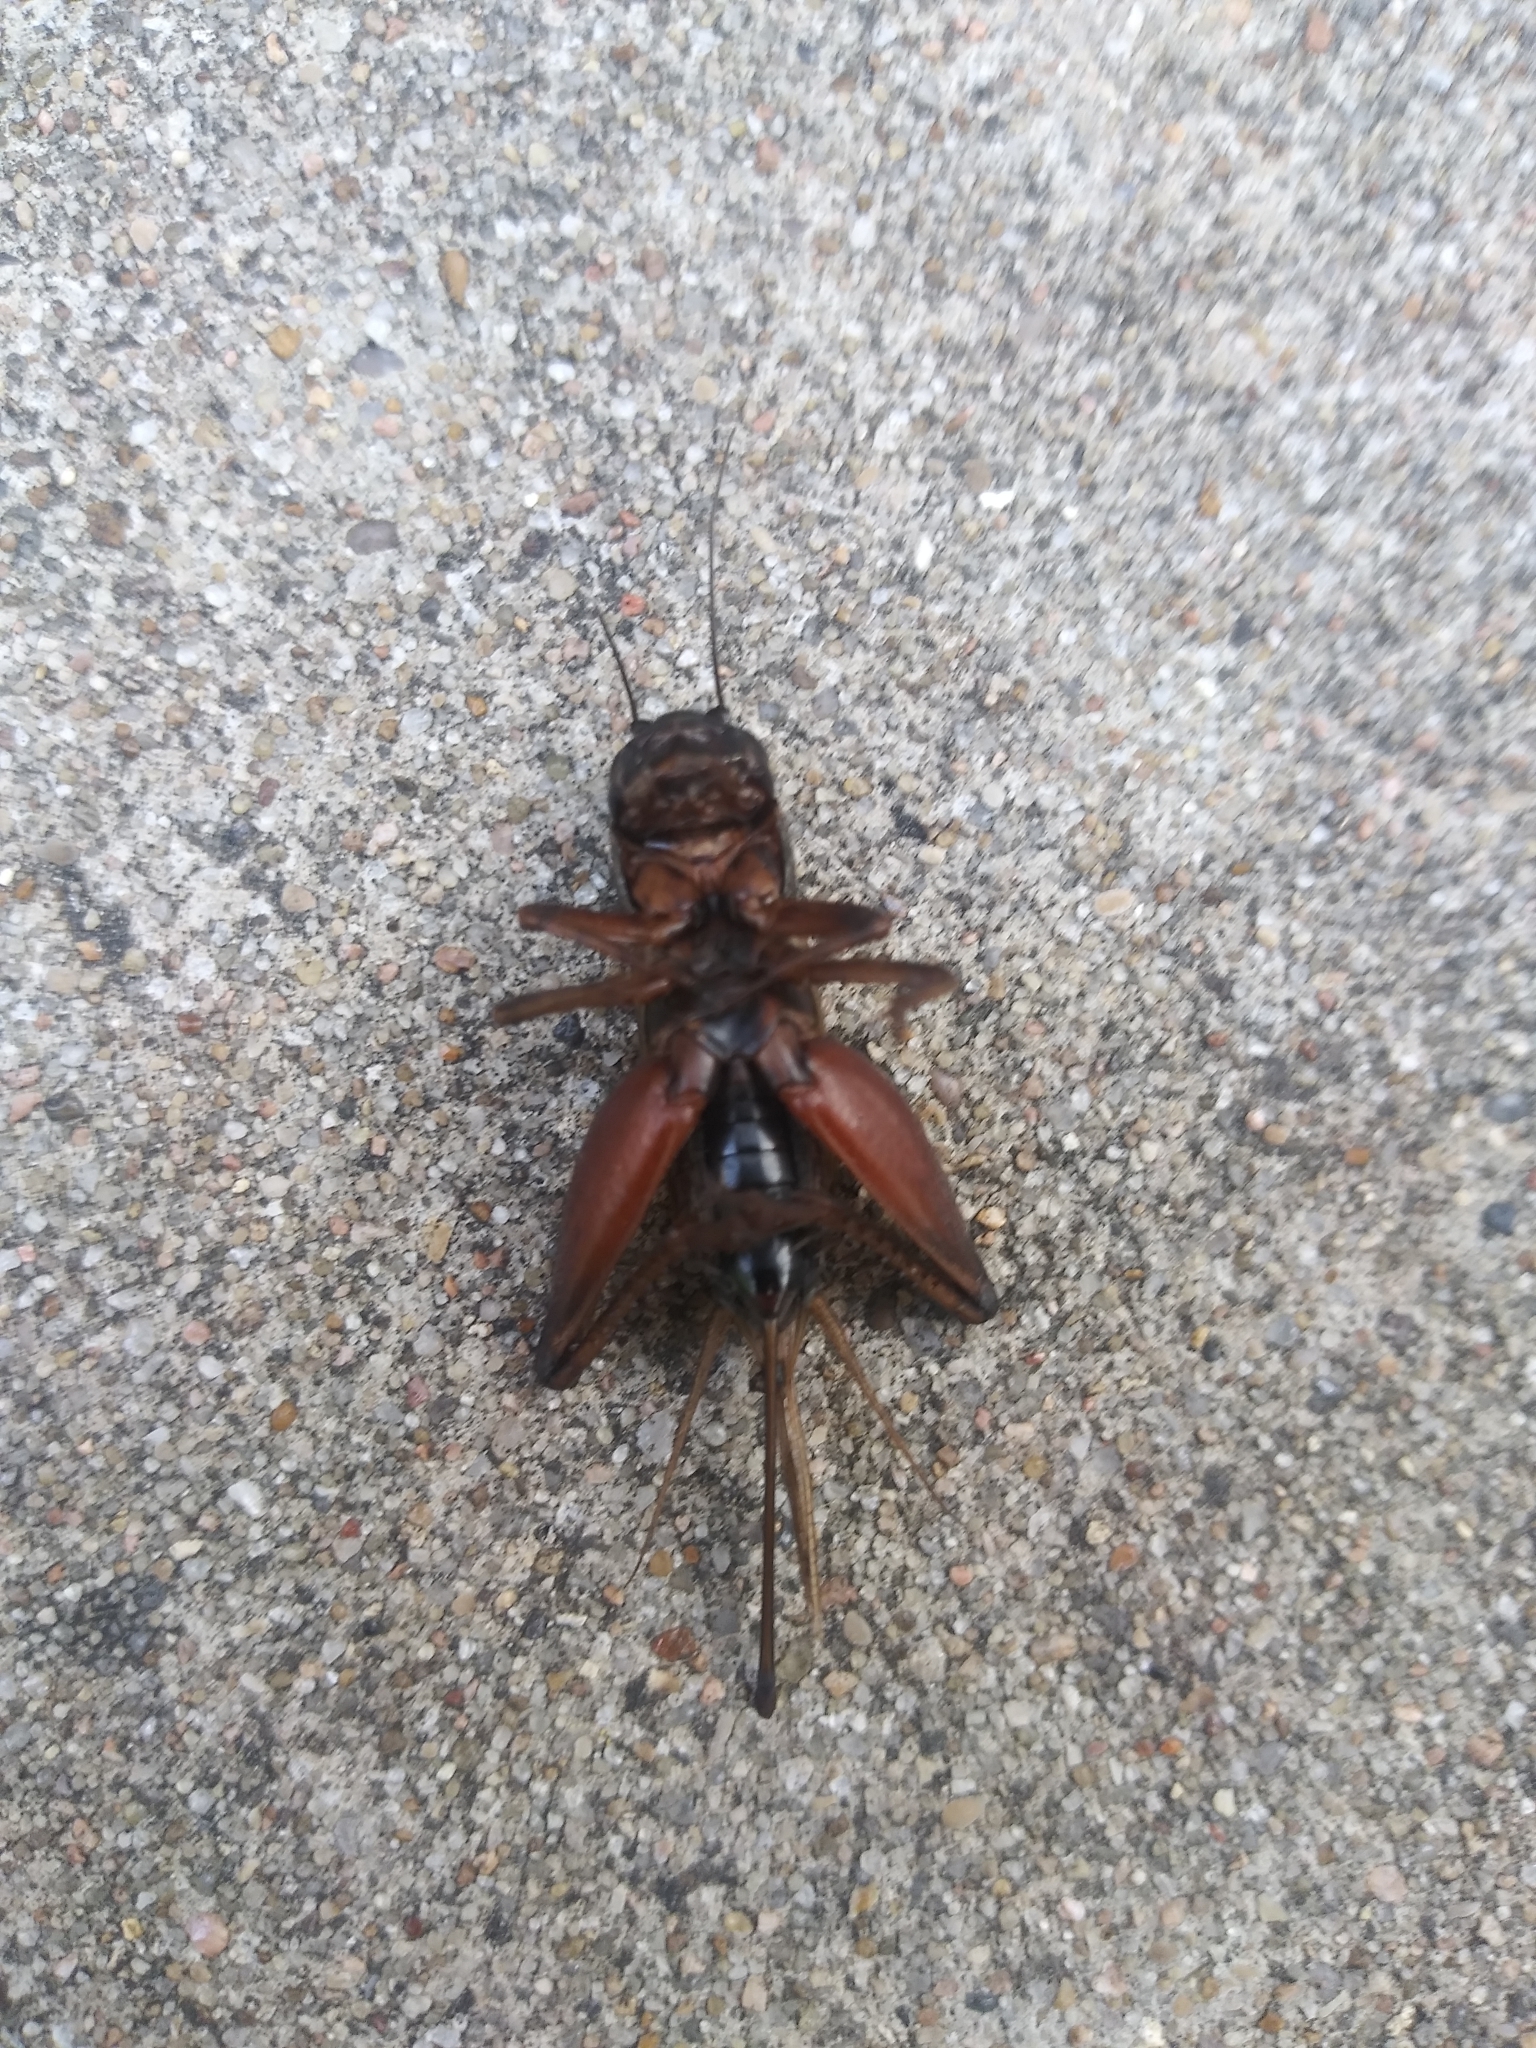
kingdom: Animalia
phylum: Arthropoda
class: Insecta
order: Orthoptera
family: Gryllidae
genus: Gryllus
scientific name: Gryllus
